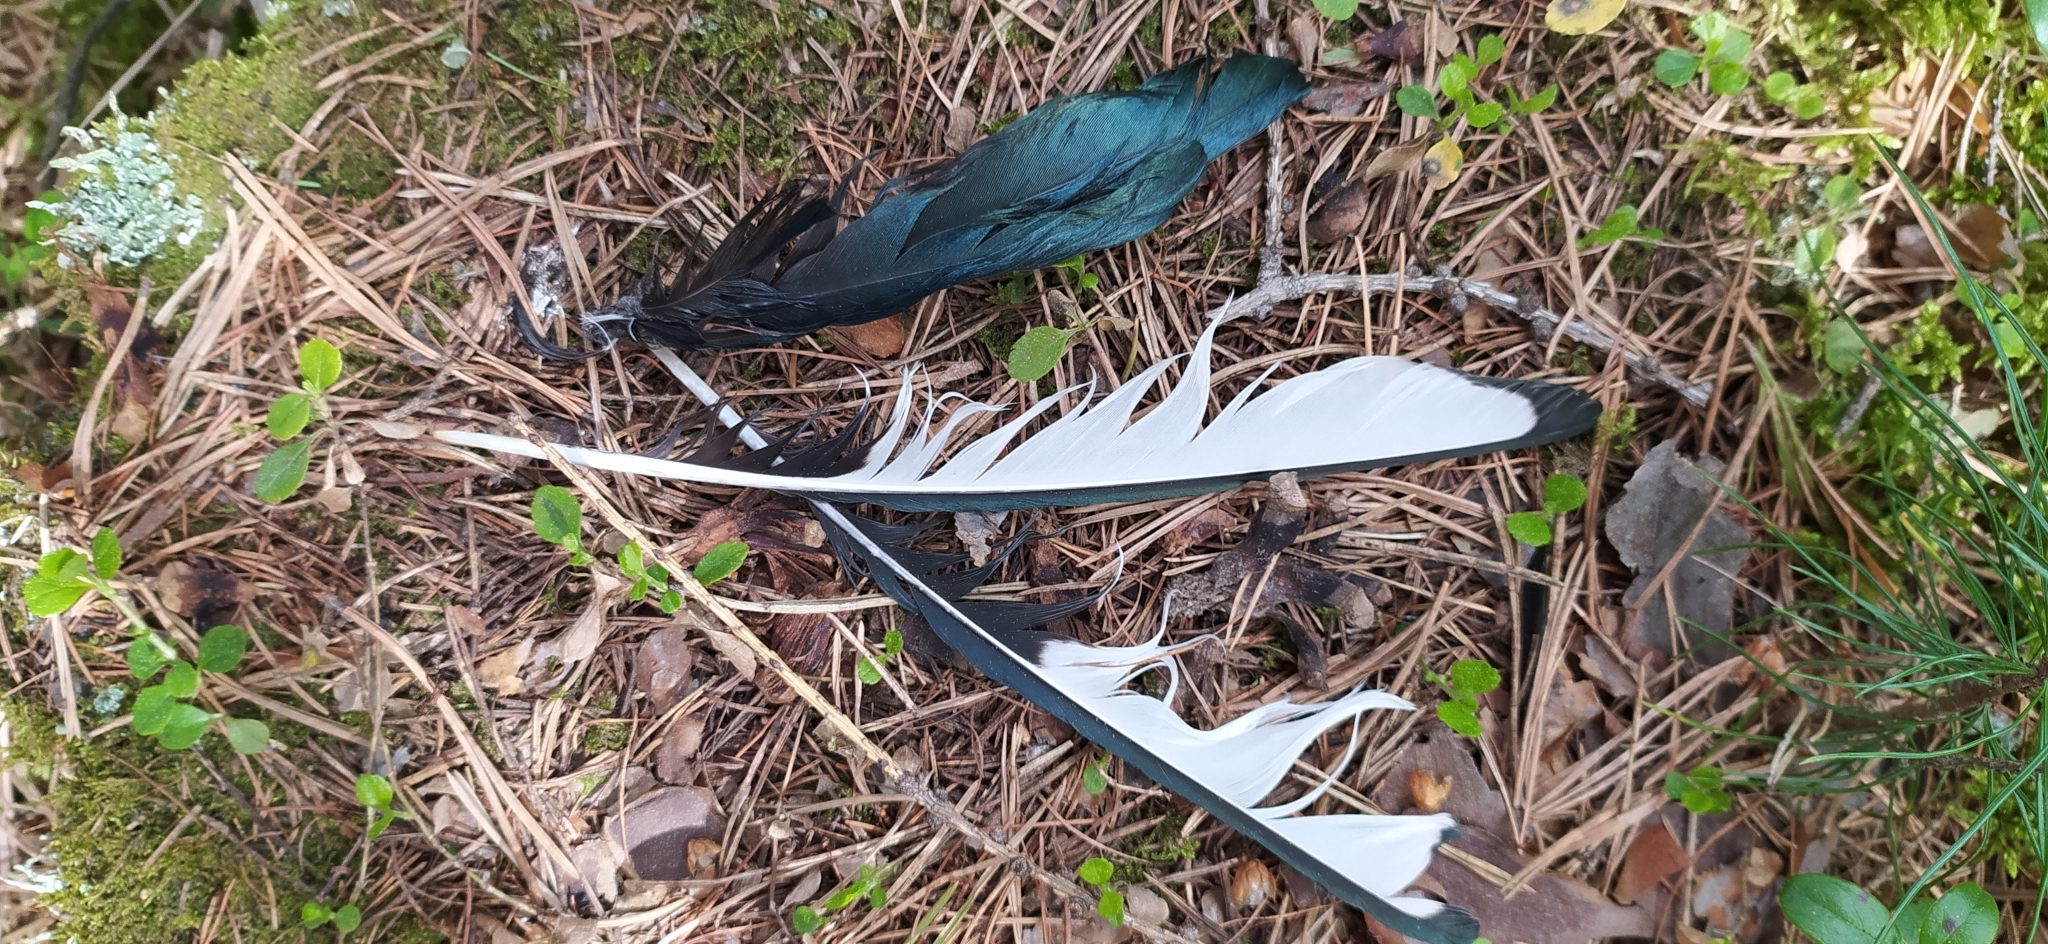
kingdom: Animalia
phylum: Chordata
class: Aves
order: Passeriformes
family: Corvidae
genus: Pica
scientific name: Pica pica
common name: Eurasian magpie
